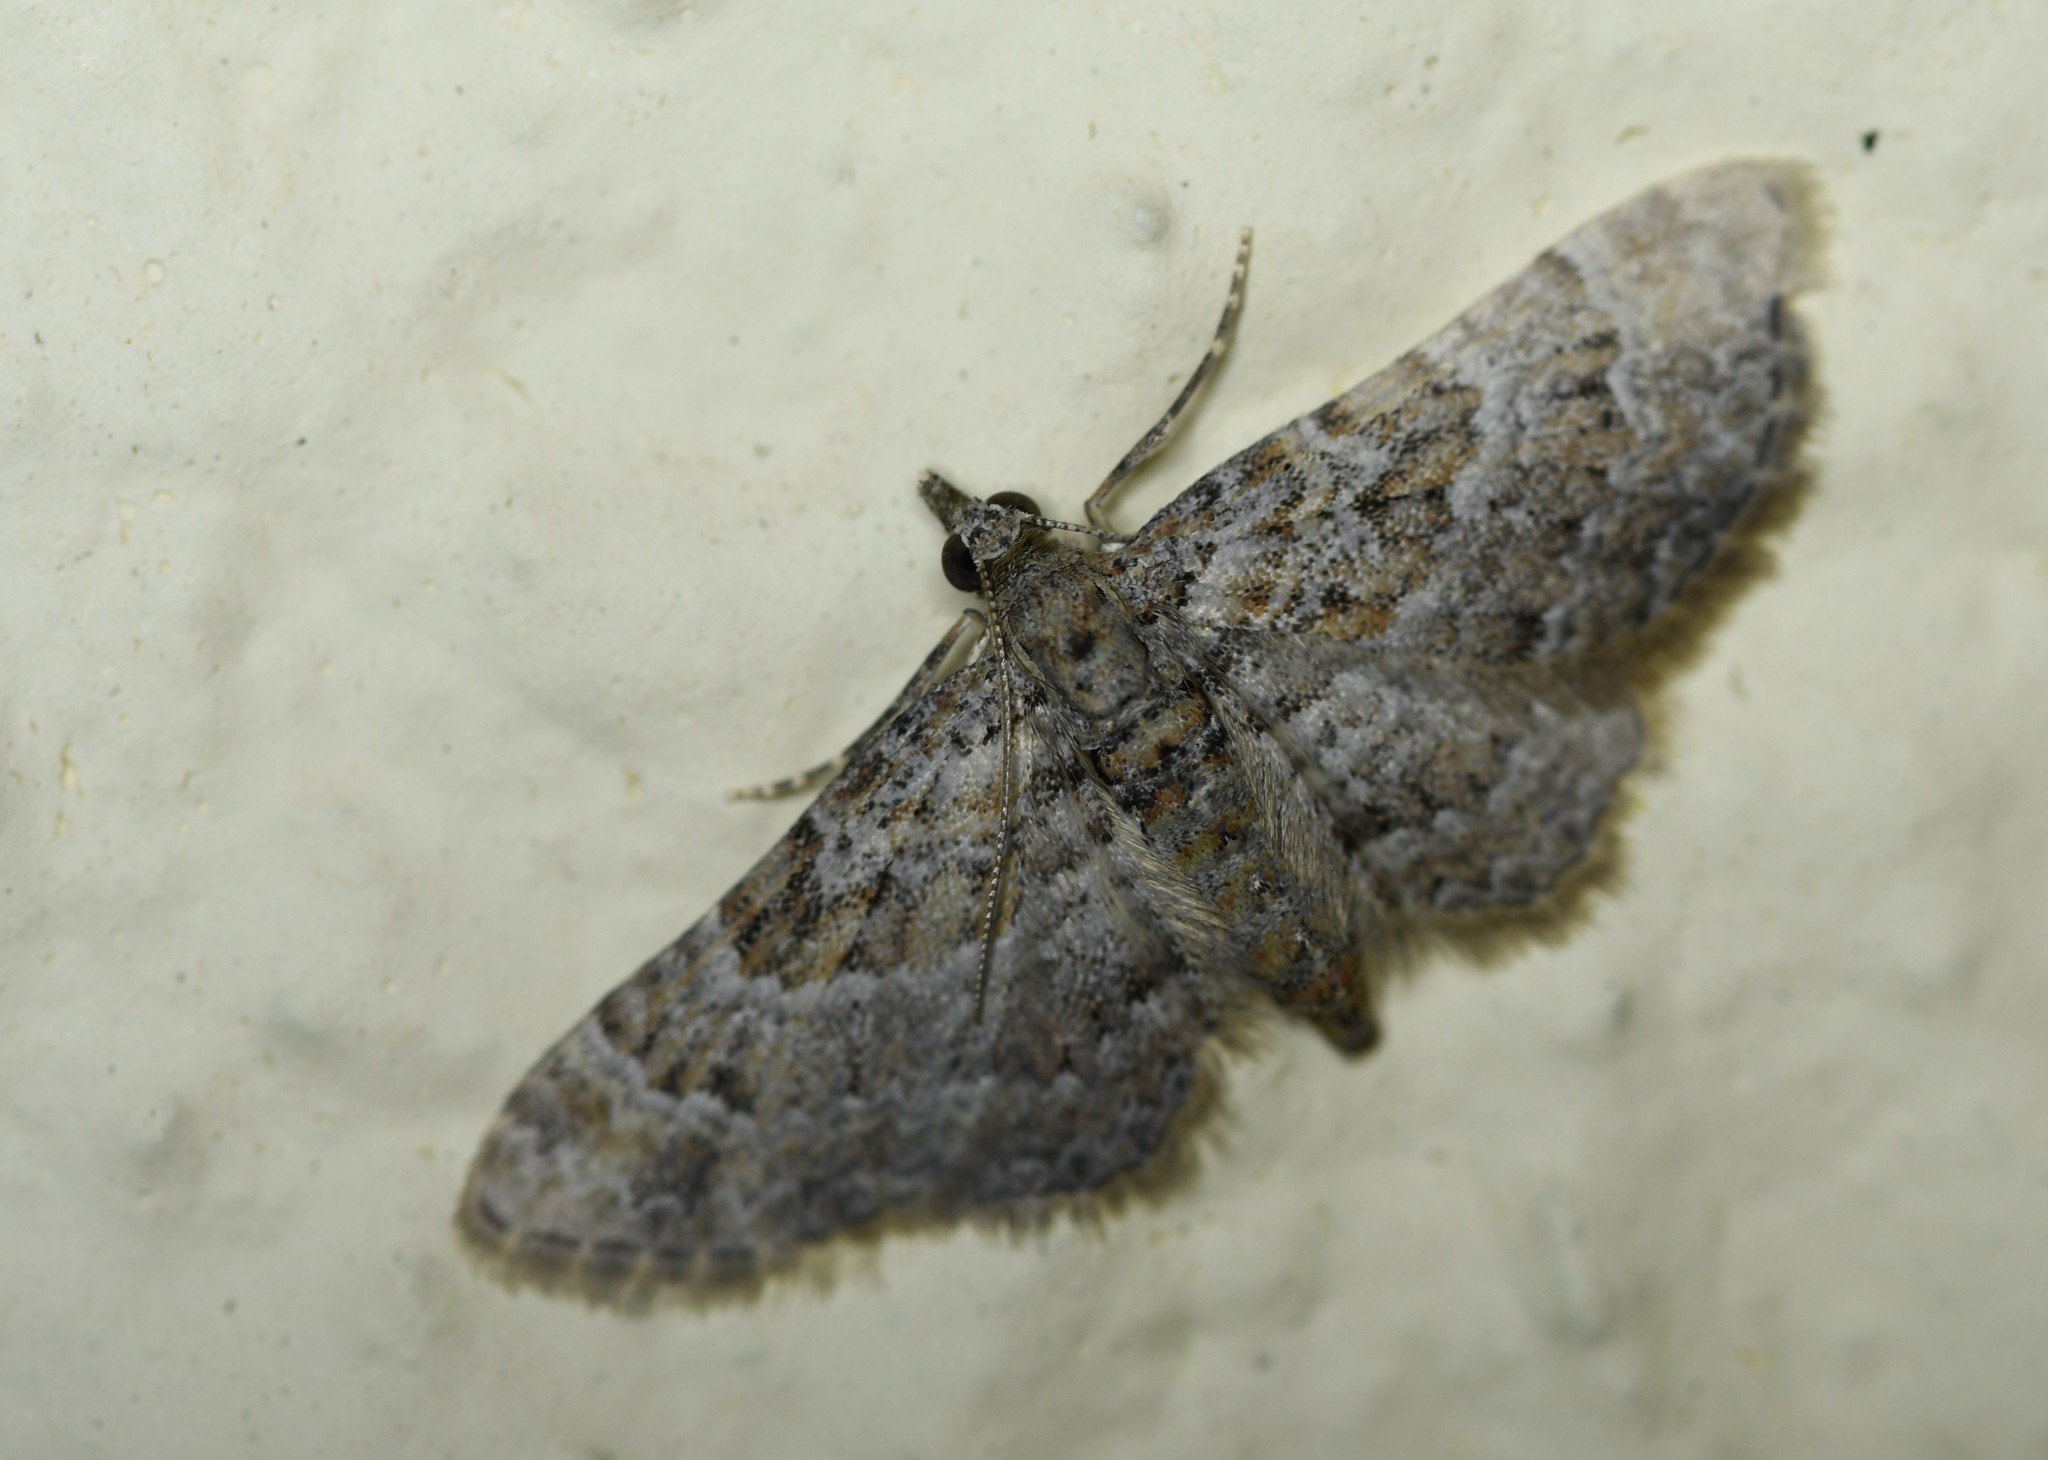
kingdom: Animalia
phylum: Arthropoda
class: Insecta
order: Lepidoptera
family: Geometridae
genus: Gymnoscelis
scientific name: Gymnoscelis rufifasciata
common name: Double-striped pug
